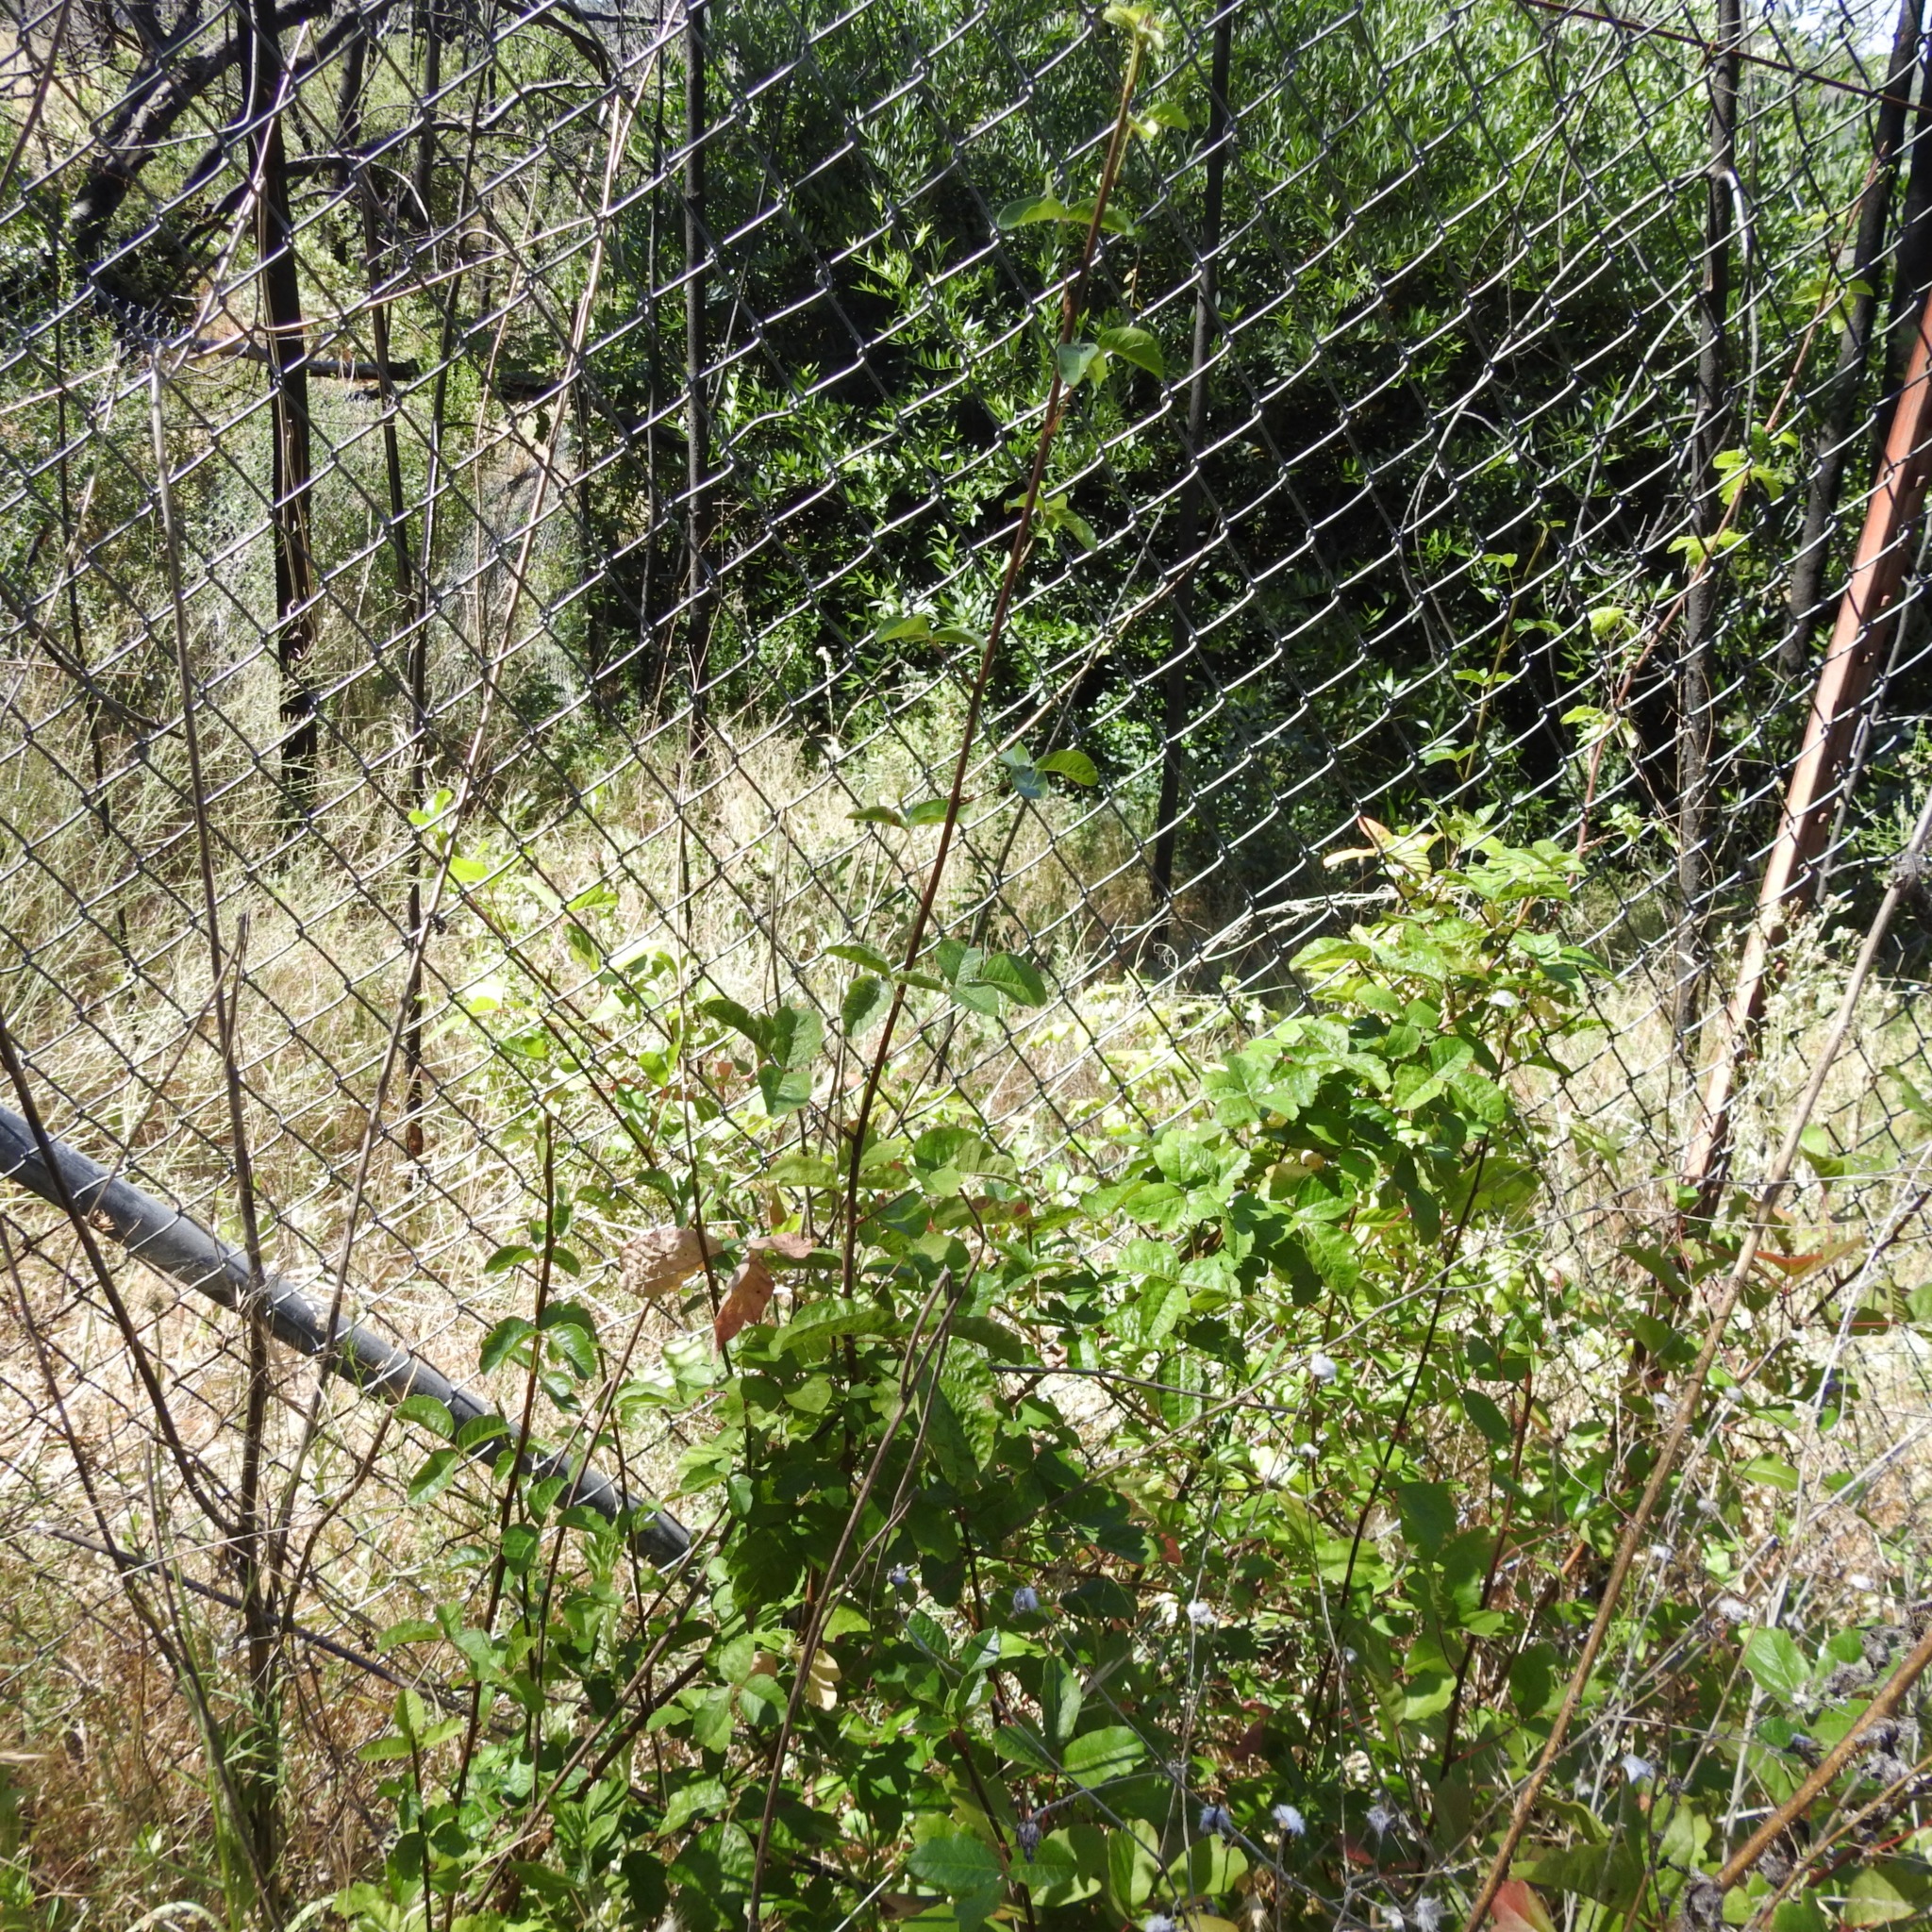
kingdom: Plantae
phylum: Tracheophyta
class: Magnoliopsida
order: Sapindales
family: Anacardiaceae
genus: Toxicodendron
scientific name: Toxicodendron diversilobum
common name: Pacific poison-oak
